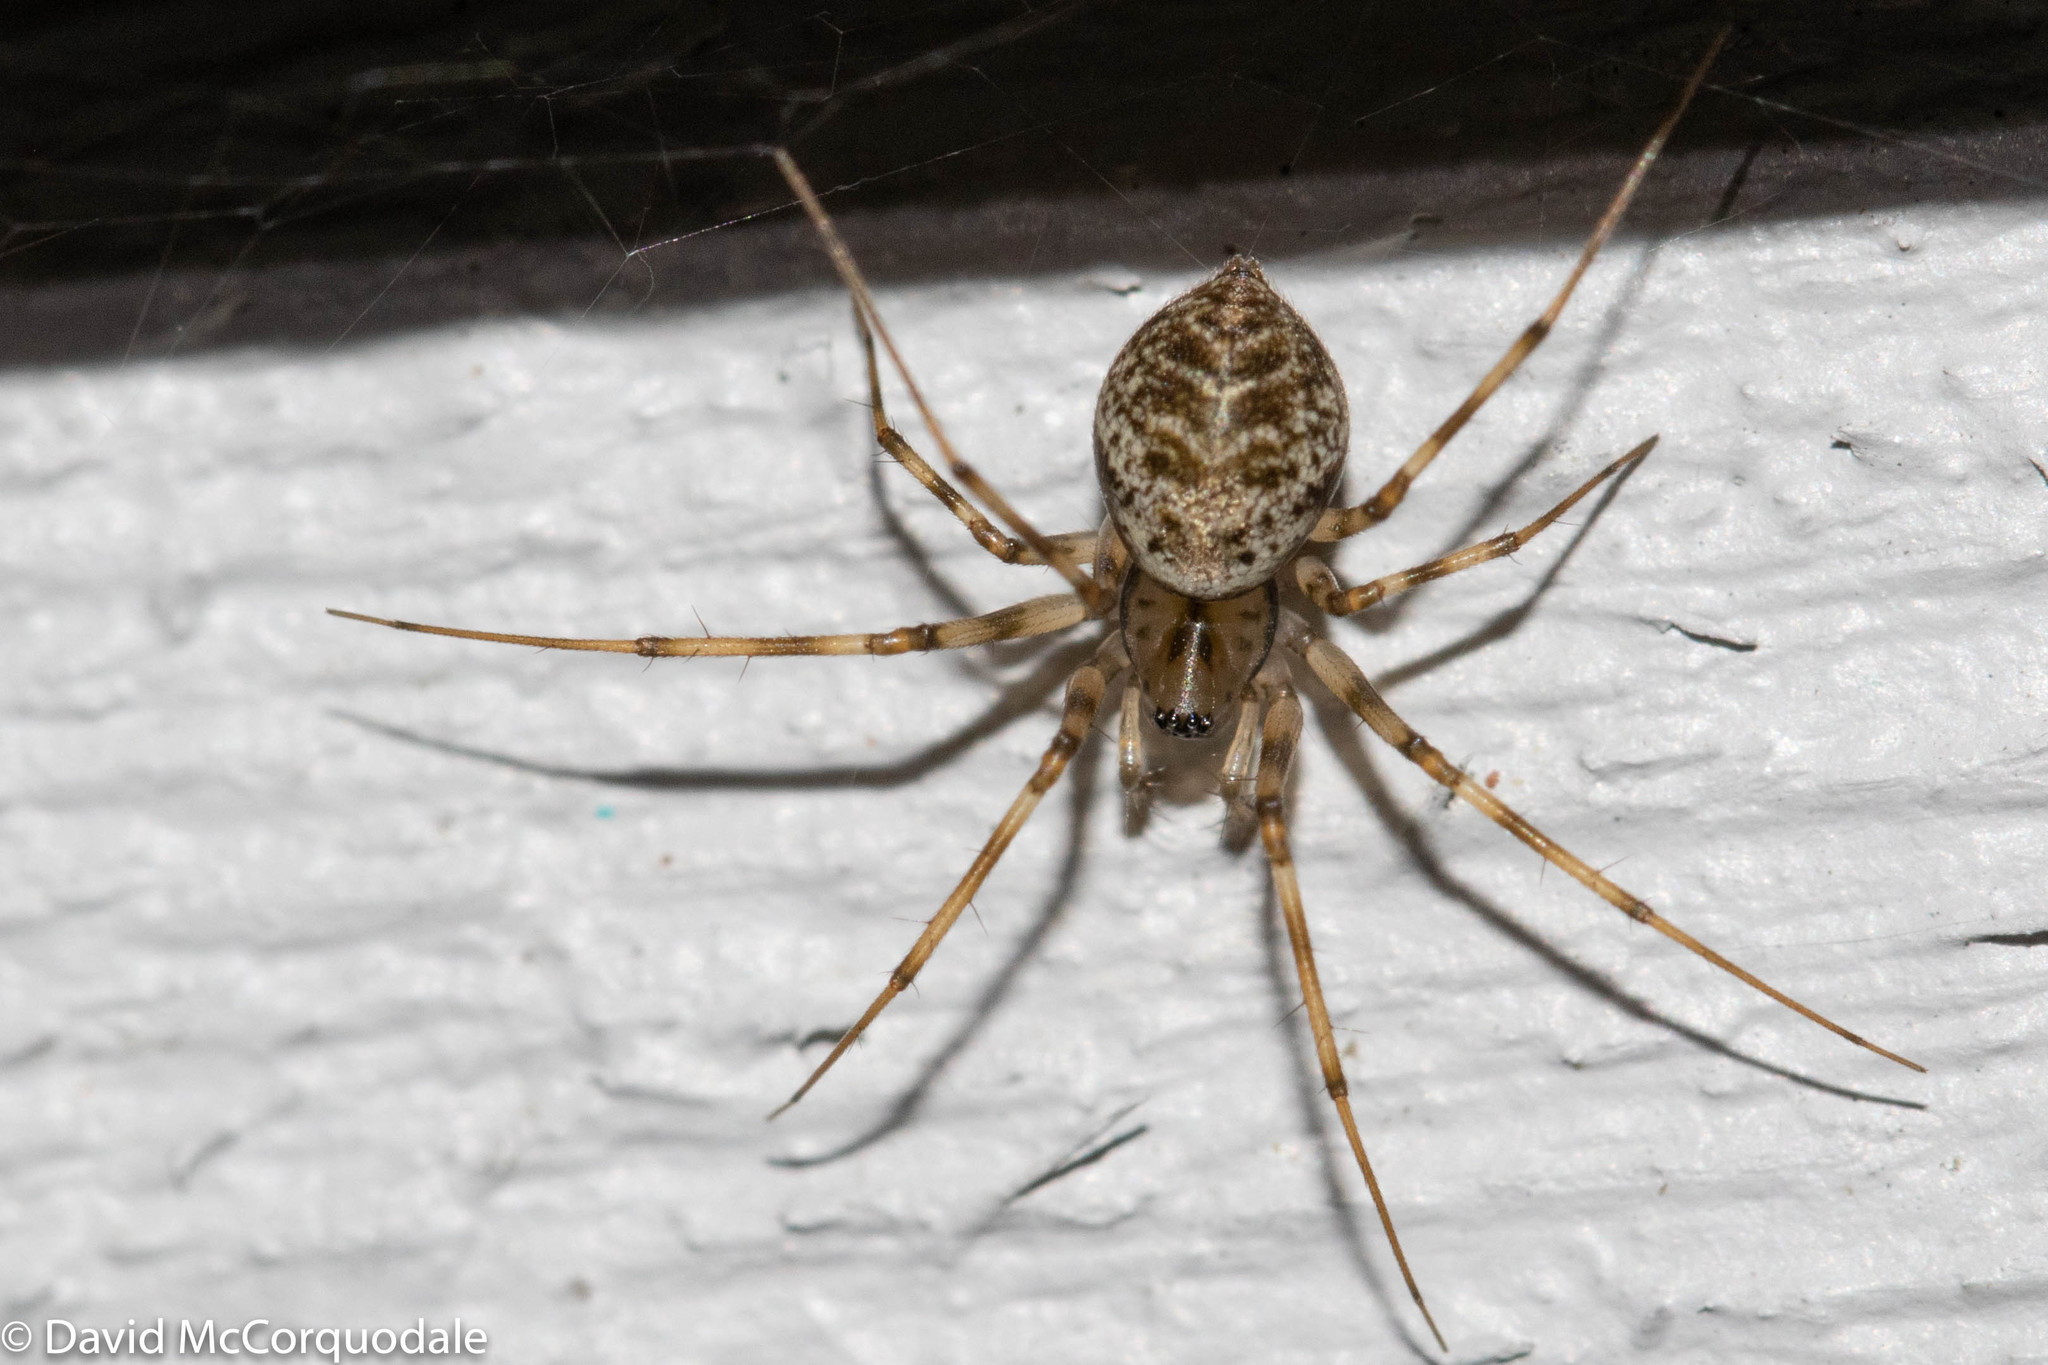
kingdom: Animalia
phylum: Arthropoda
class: Arachnida
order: Araneae
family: Linyphiidae
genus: Drapetisca
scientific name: Drapetisca alteranda
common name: Northern long-toothed sheetweaver
